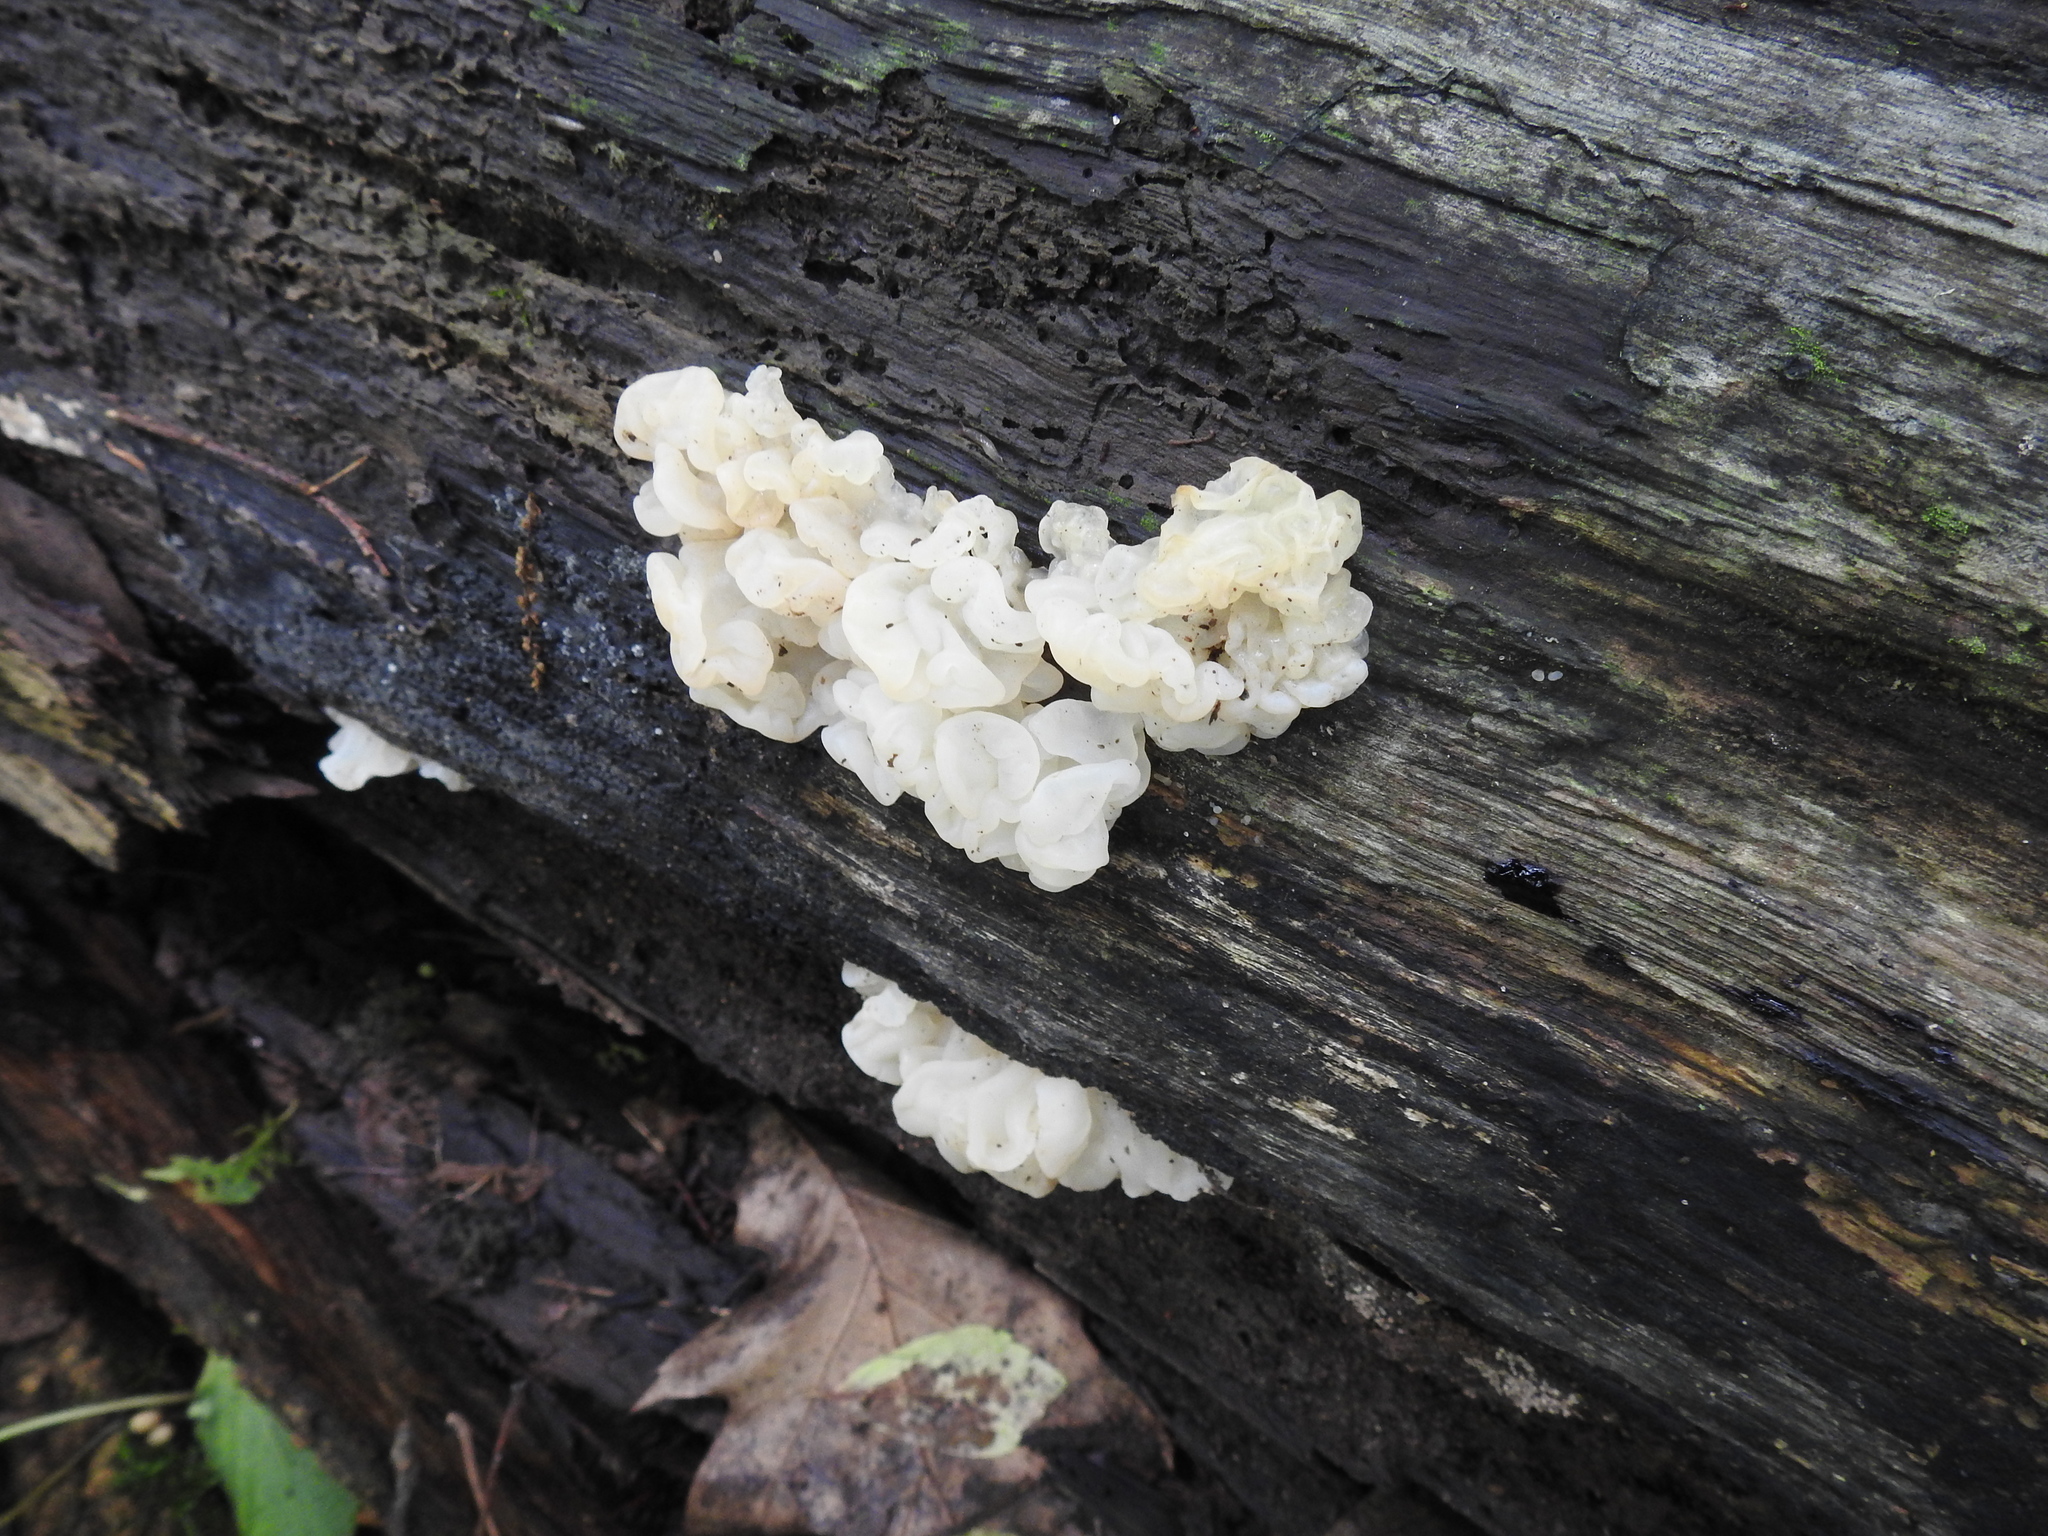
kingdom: Fungi
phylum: Basidiomycota
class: Agaricomycetes
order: Auriculariales
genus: Ductifera
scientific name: Ductifera pululahuana
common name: White jelly fungus
